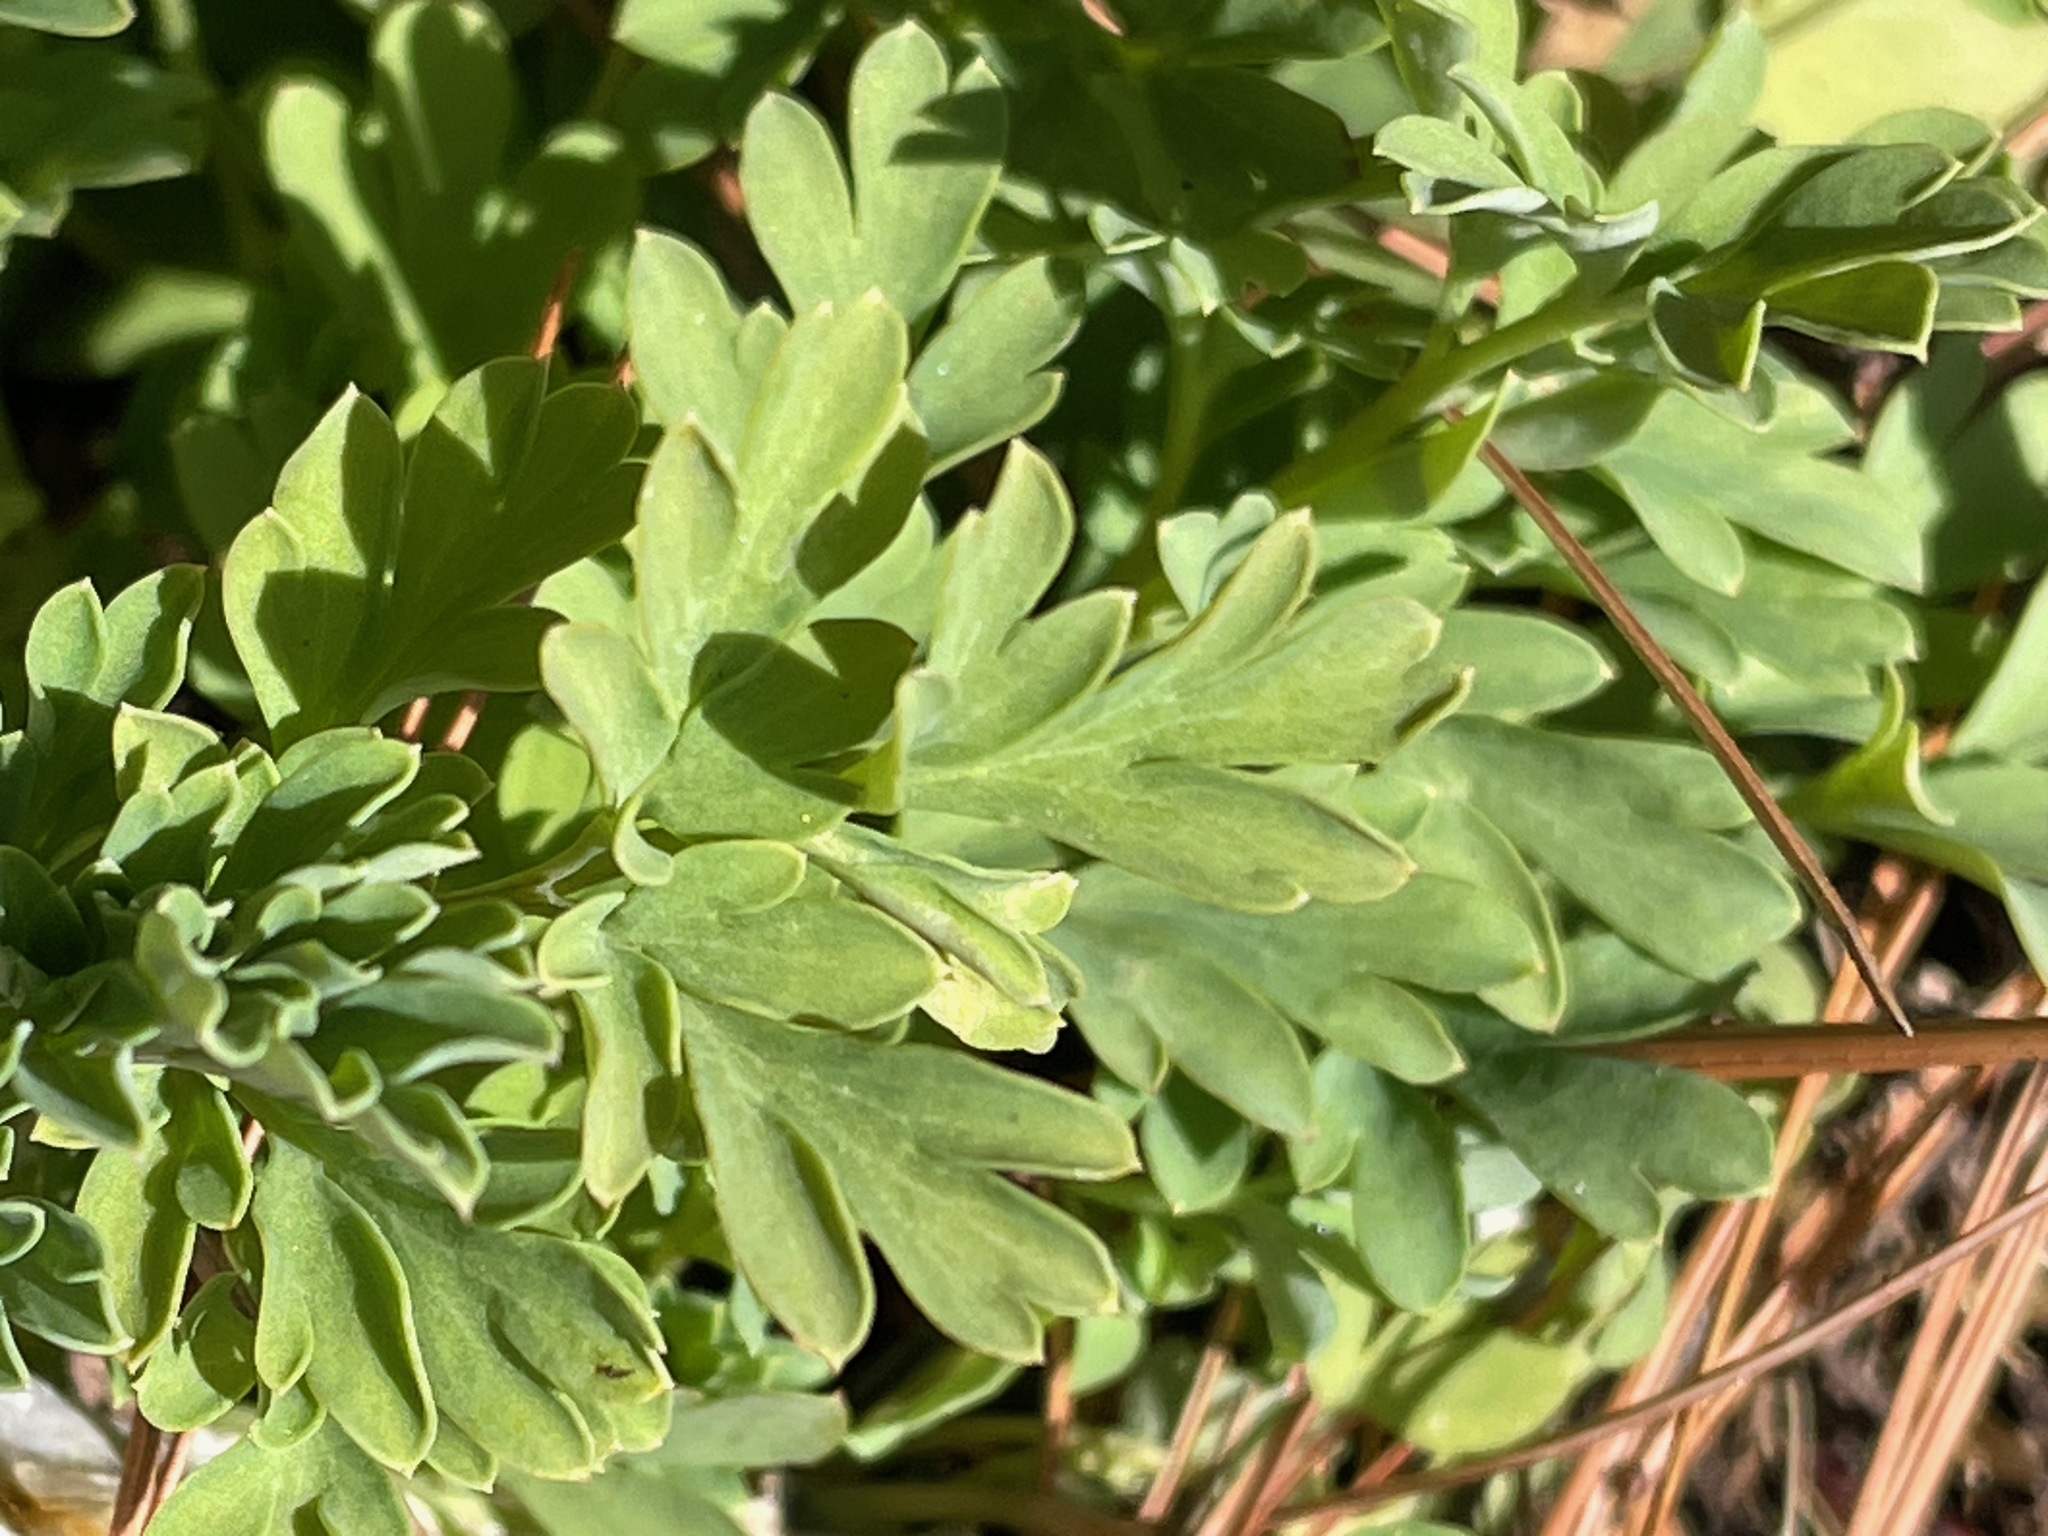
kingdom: Plantae
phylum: Tracheophyta
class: Magnoliopsida
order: Ranunculales
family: Papaveraceae
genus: Capnoides
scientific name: Capnoides sempervirens
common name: Rock harlequin
